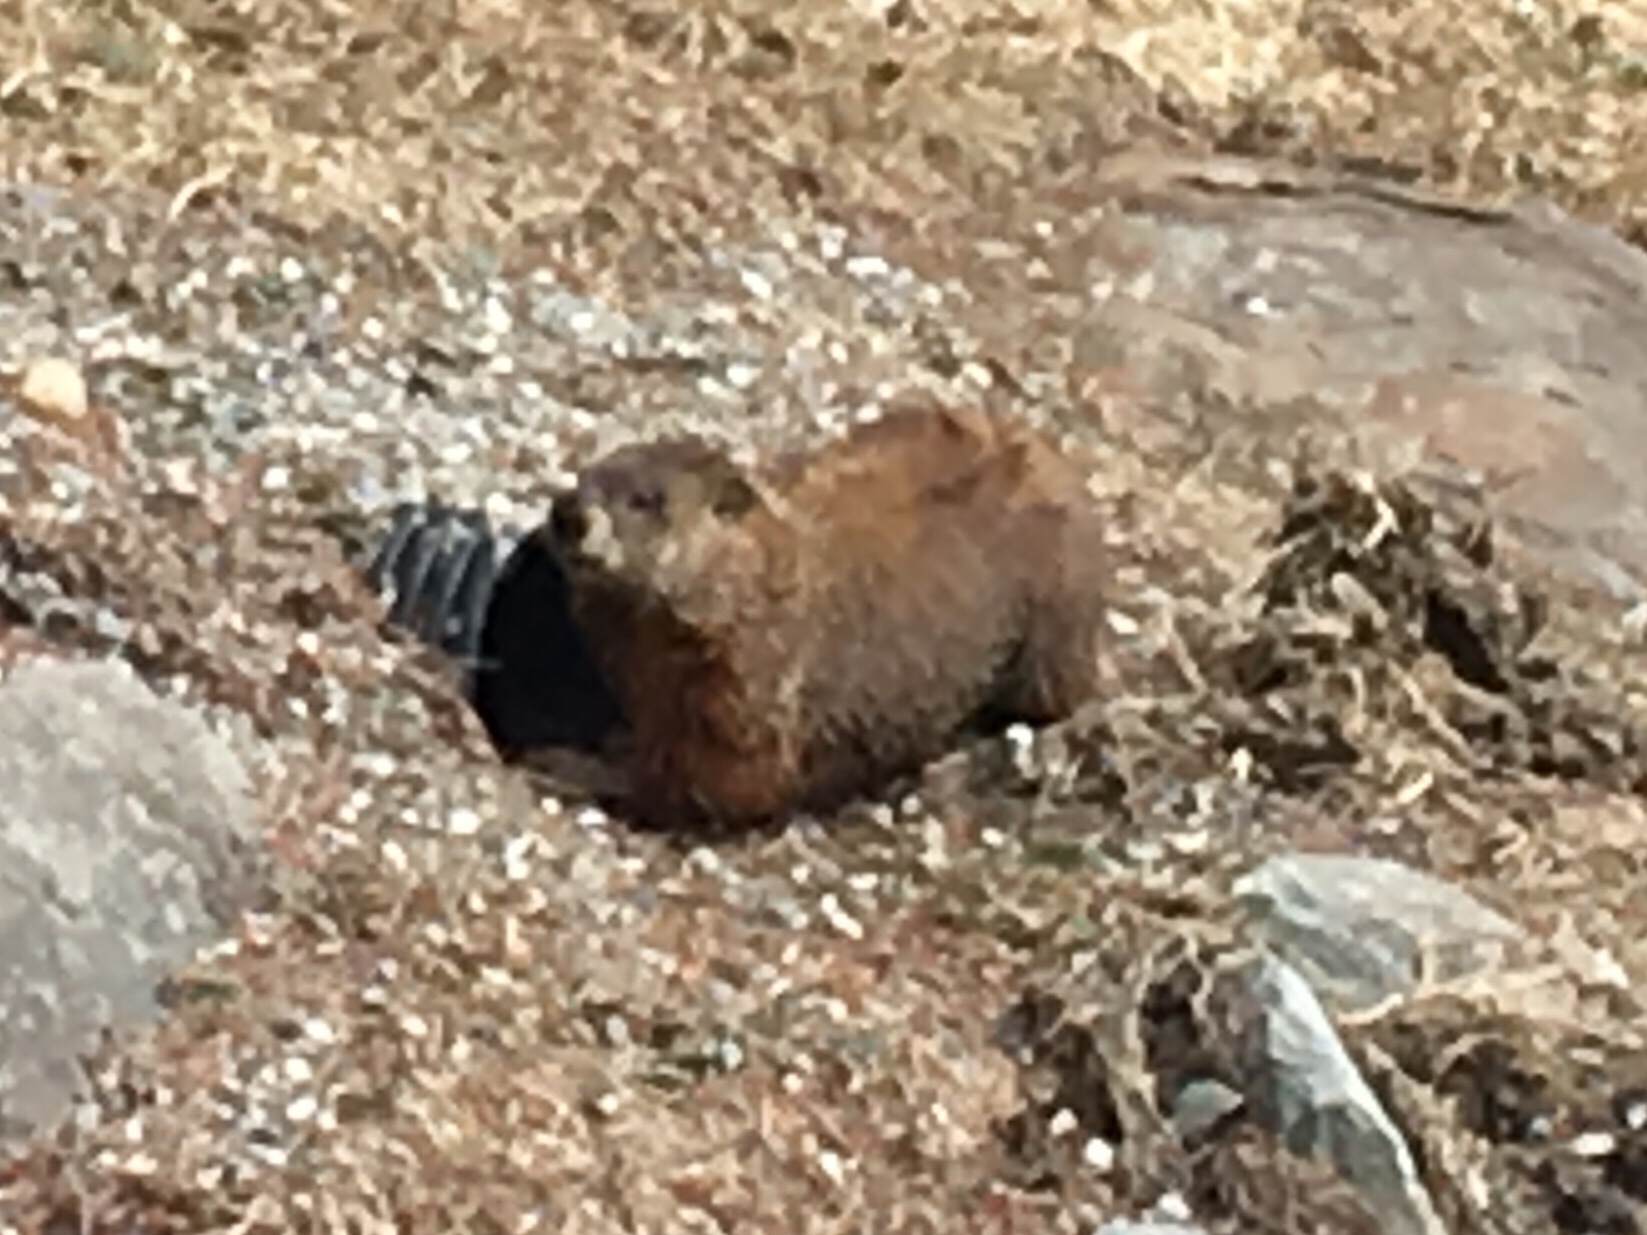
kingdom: Animalia
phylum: Chordata
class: Mammalia
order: Rodentia
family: Sciuridae
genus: Marmota
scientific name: Marmota monax
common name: Groundhog
